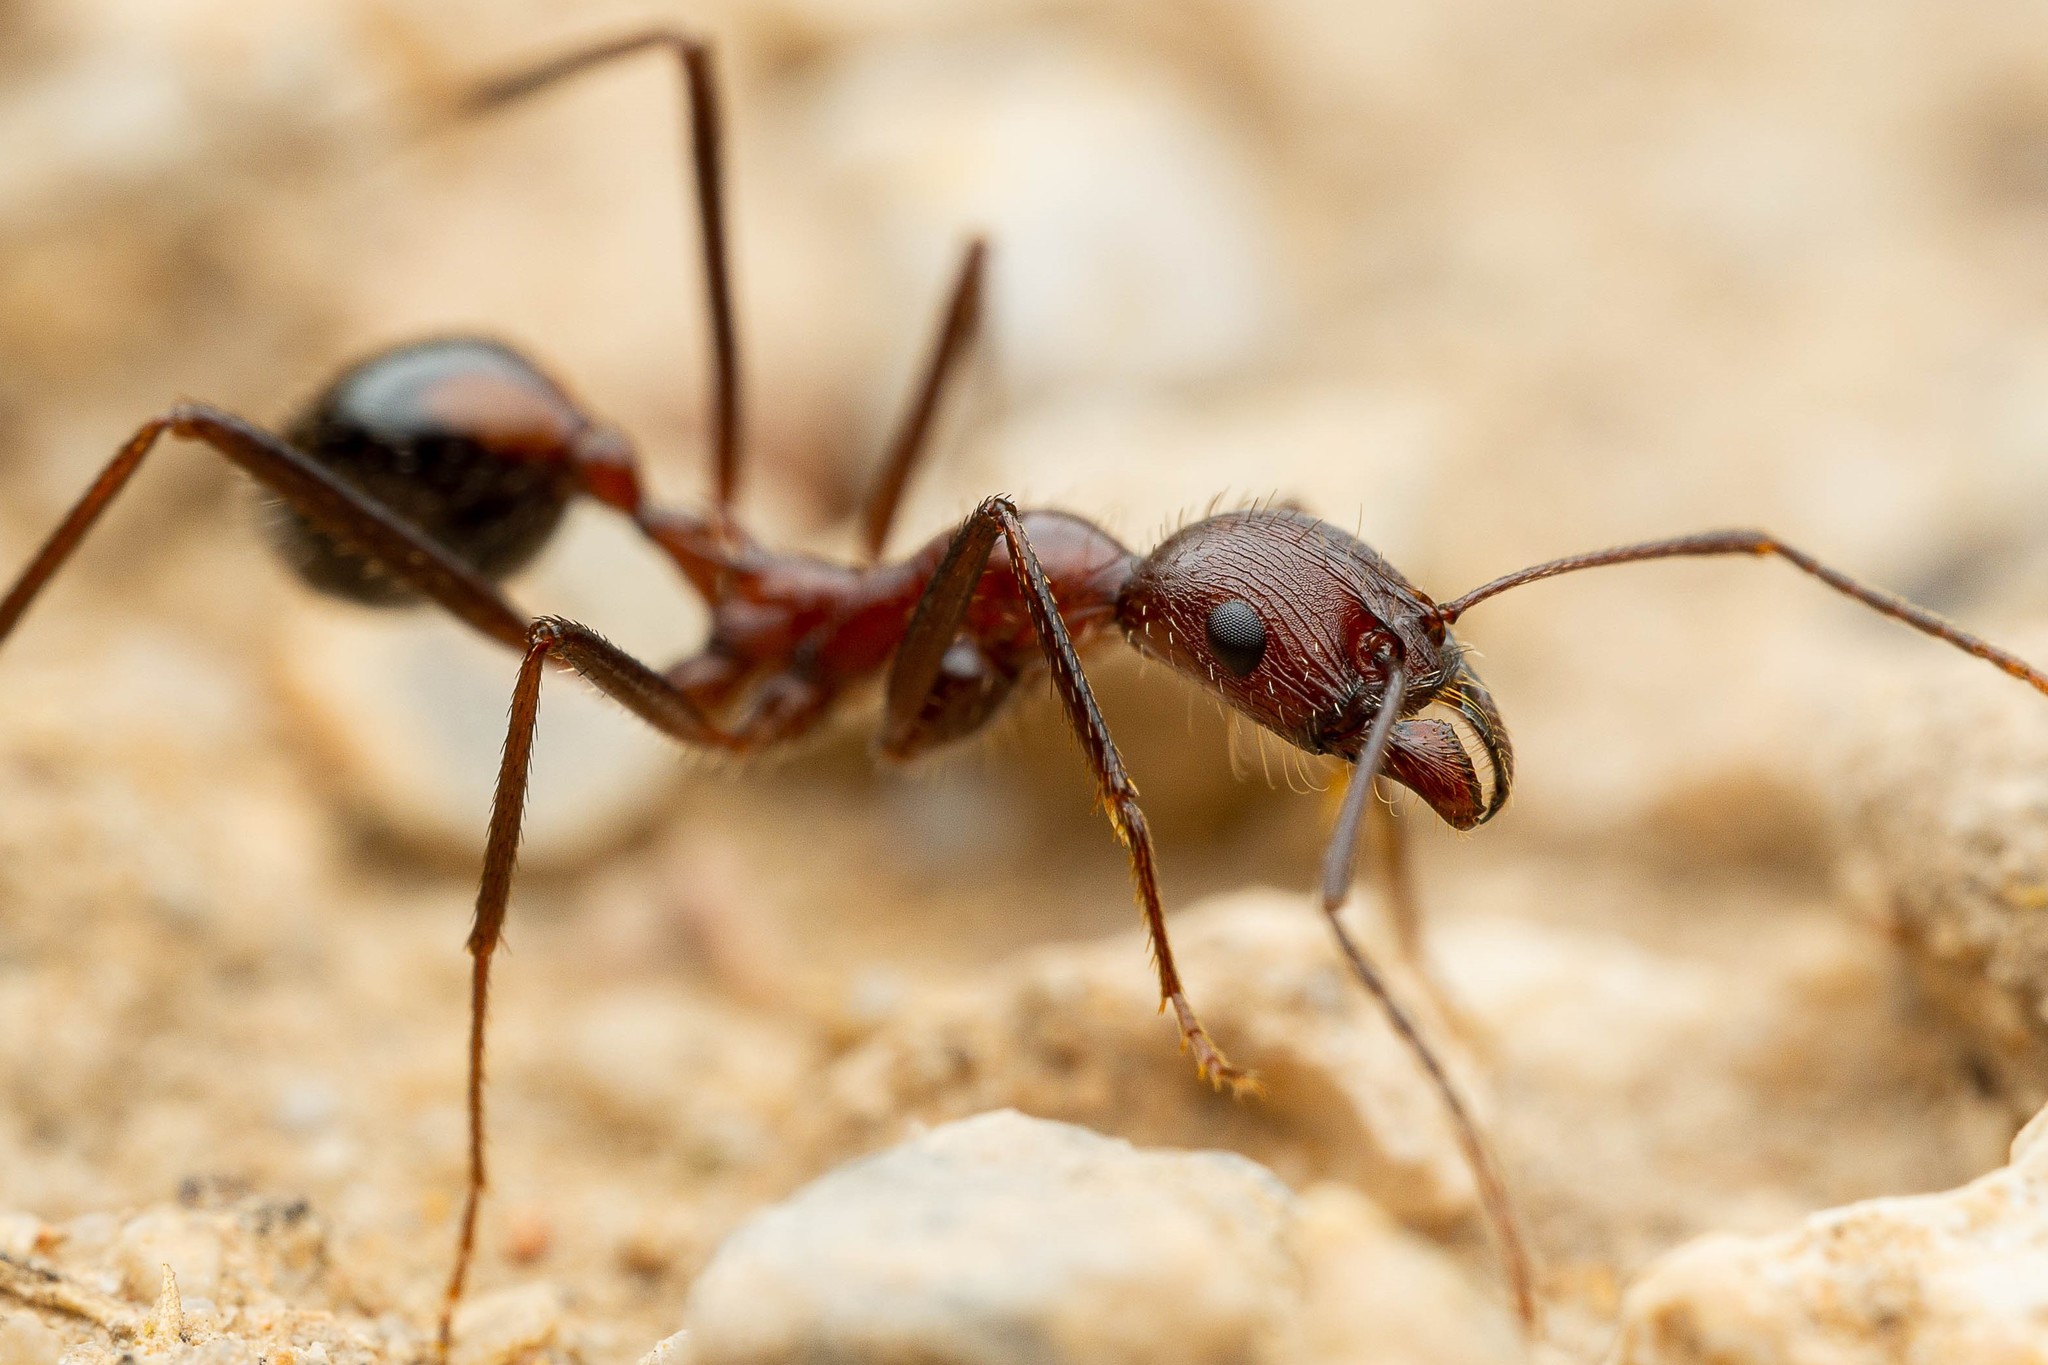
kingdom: Animalia
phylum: Arthropoda
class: Insecta
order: Hymenoptera
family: Formicidae
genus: Novomessor
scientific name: Novomessor cockerelli
